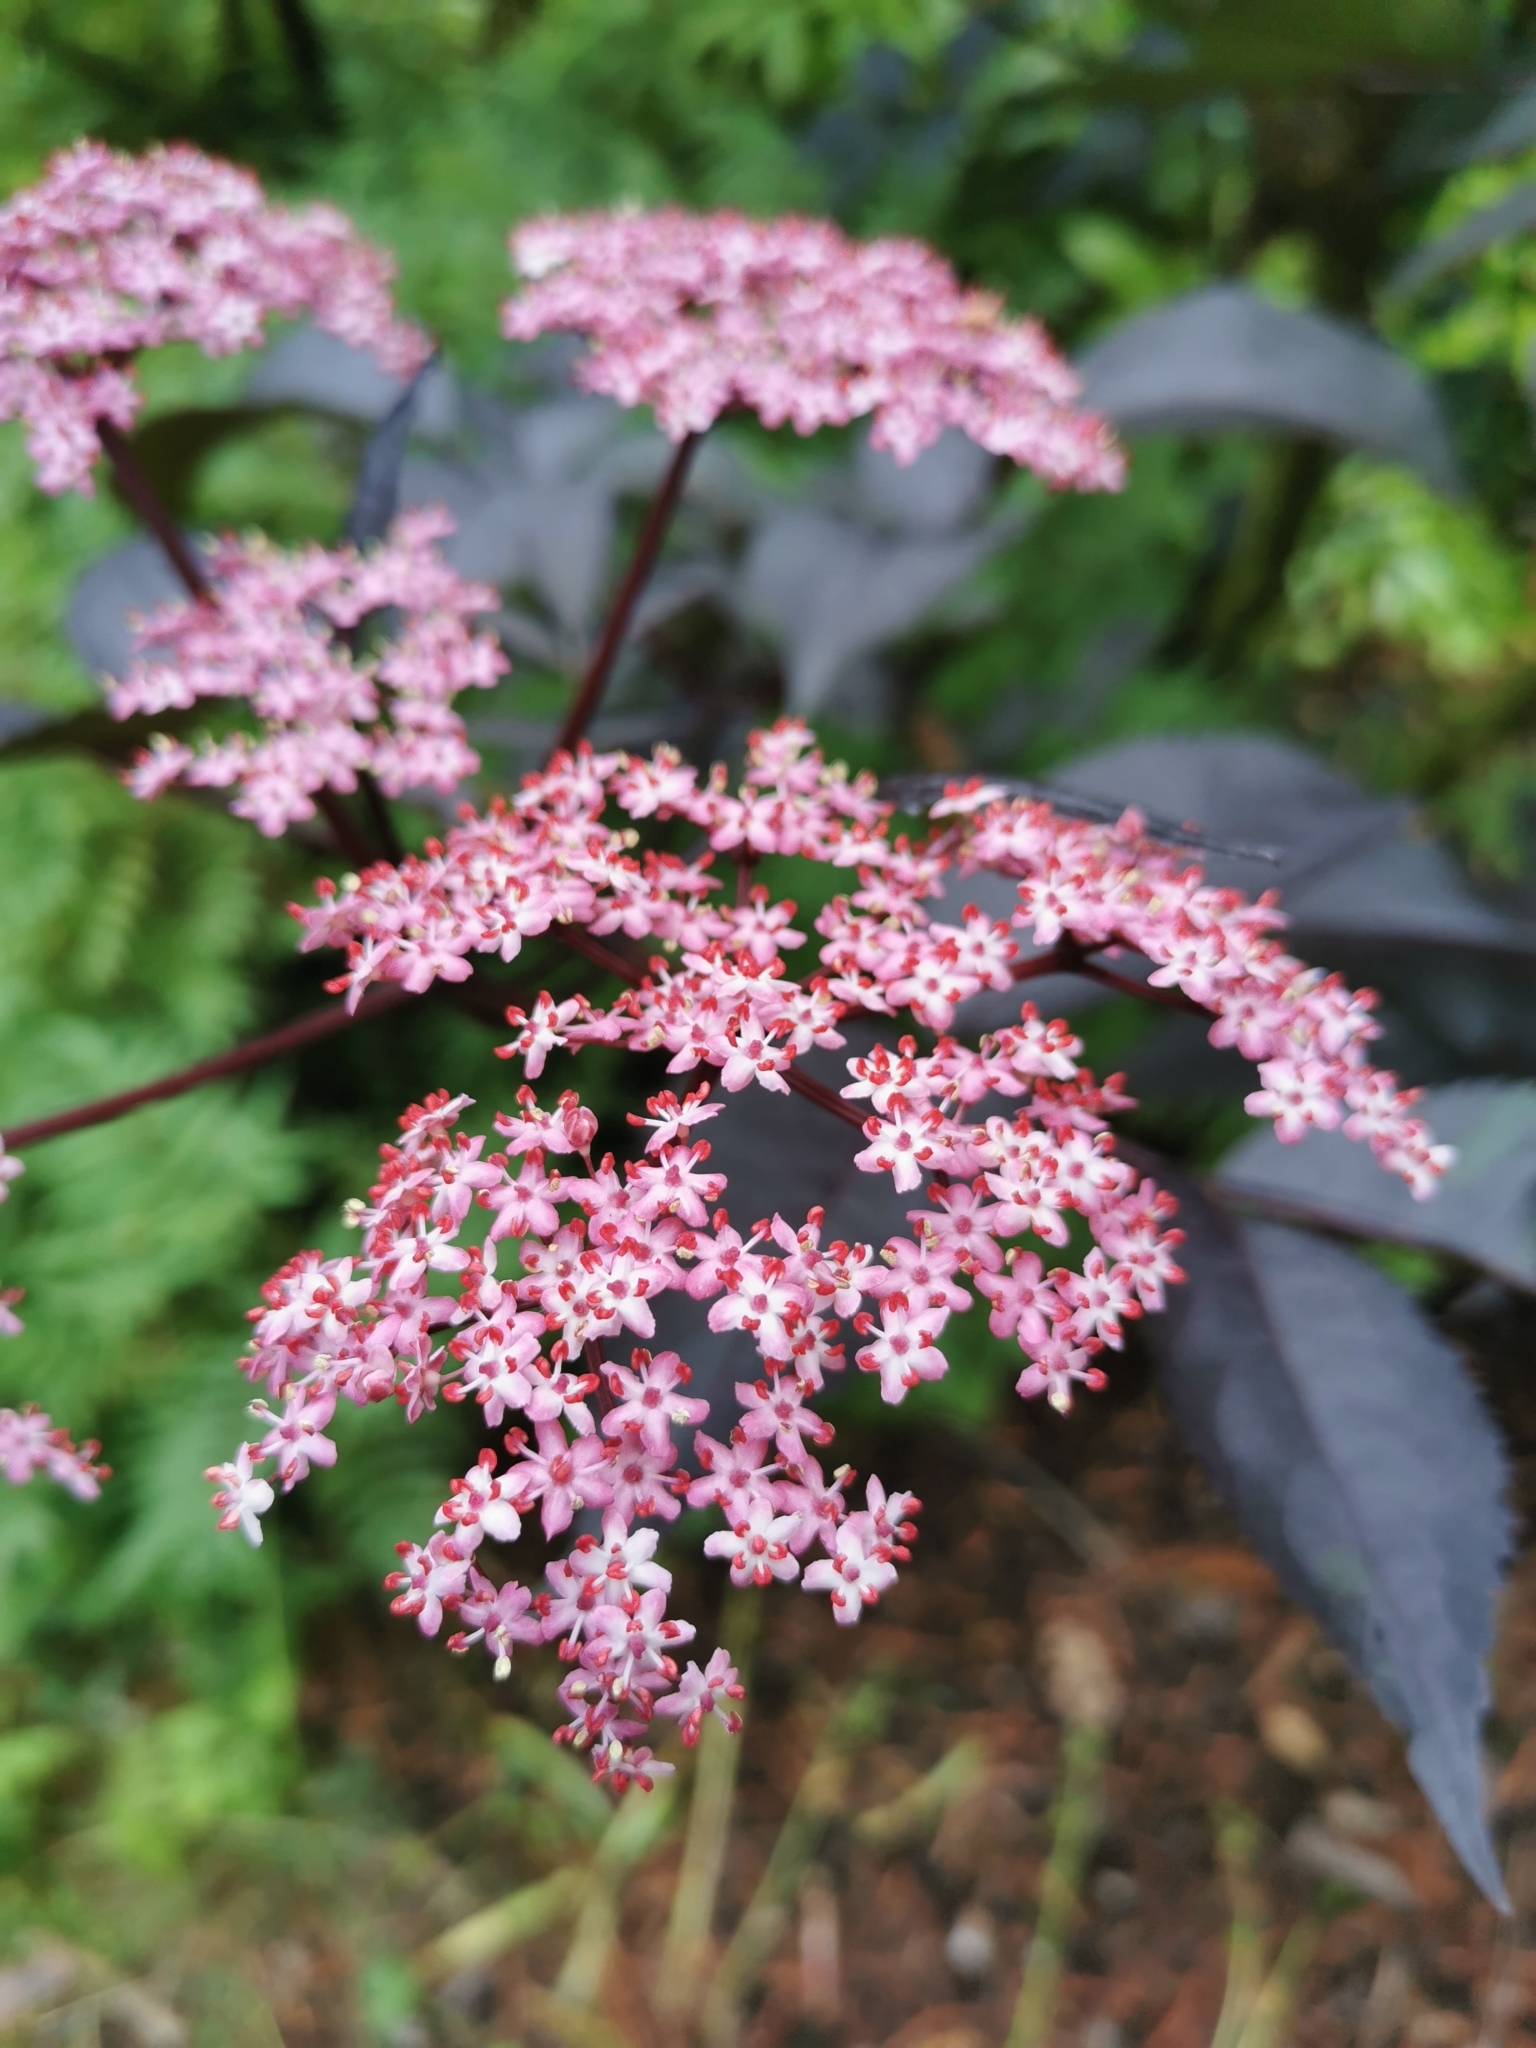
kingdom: Plantae
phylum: Tracheophyta
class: Magnoliopsida
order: Dipsacales
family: Viburnaceae
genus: Sambucus
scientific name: Sambucus nigra
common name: Elder
